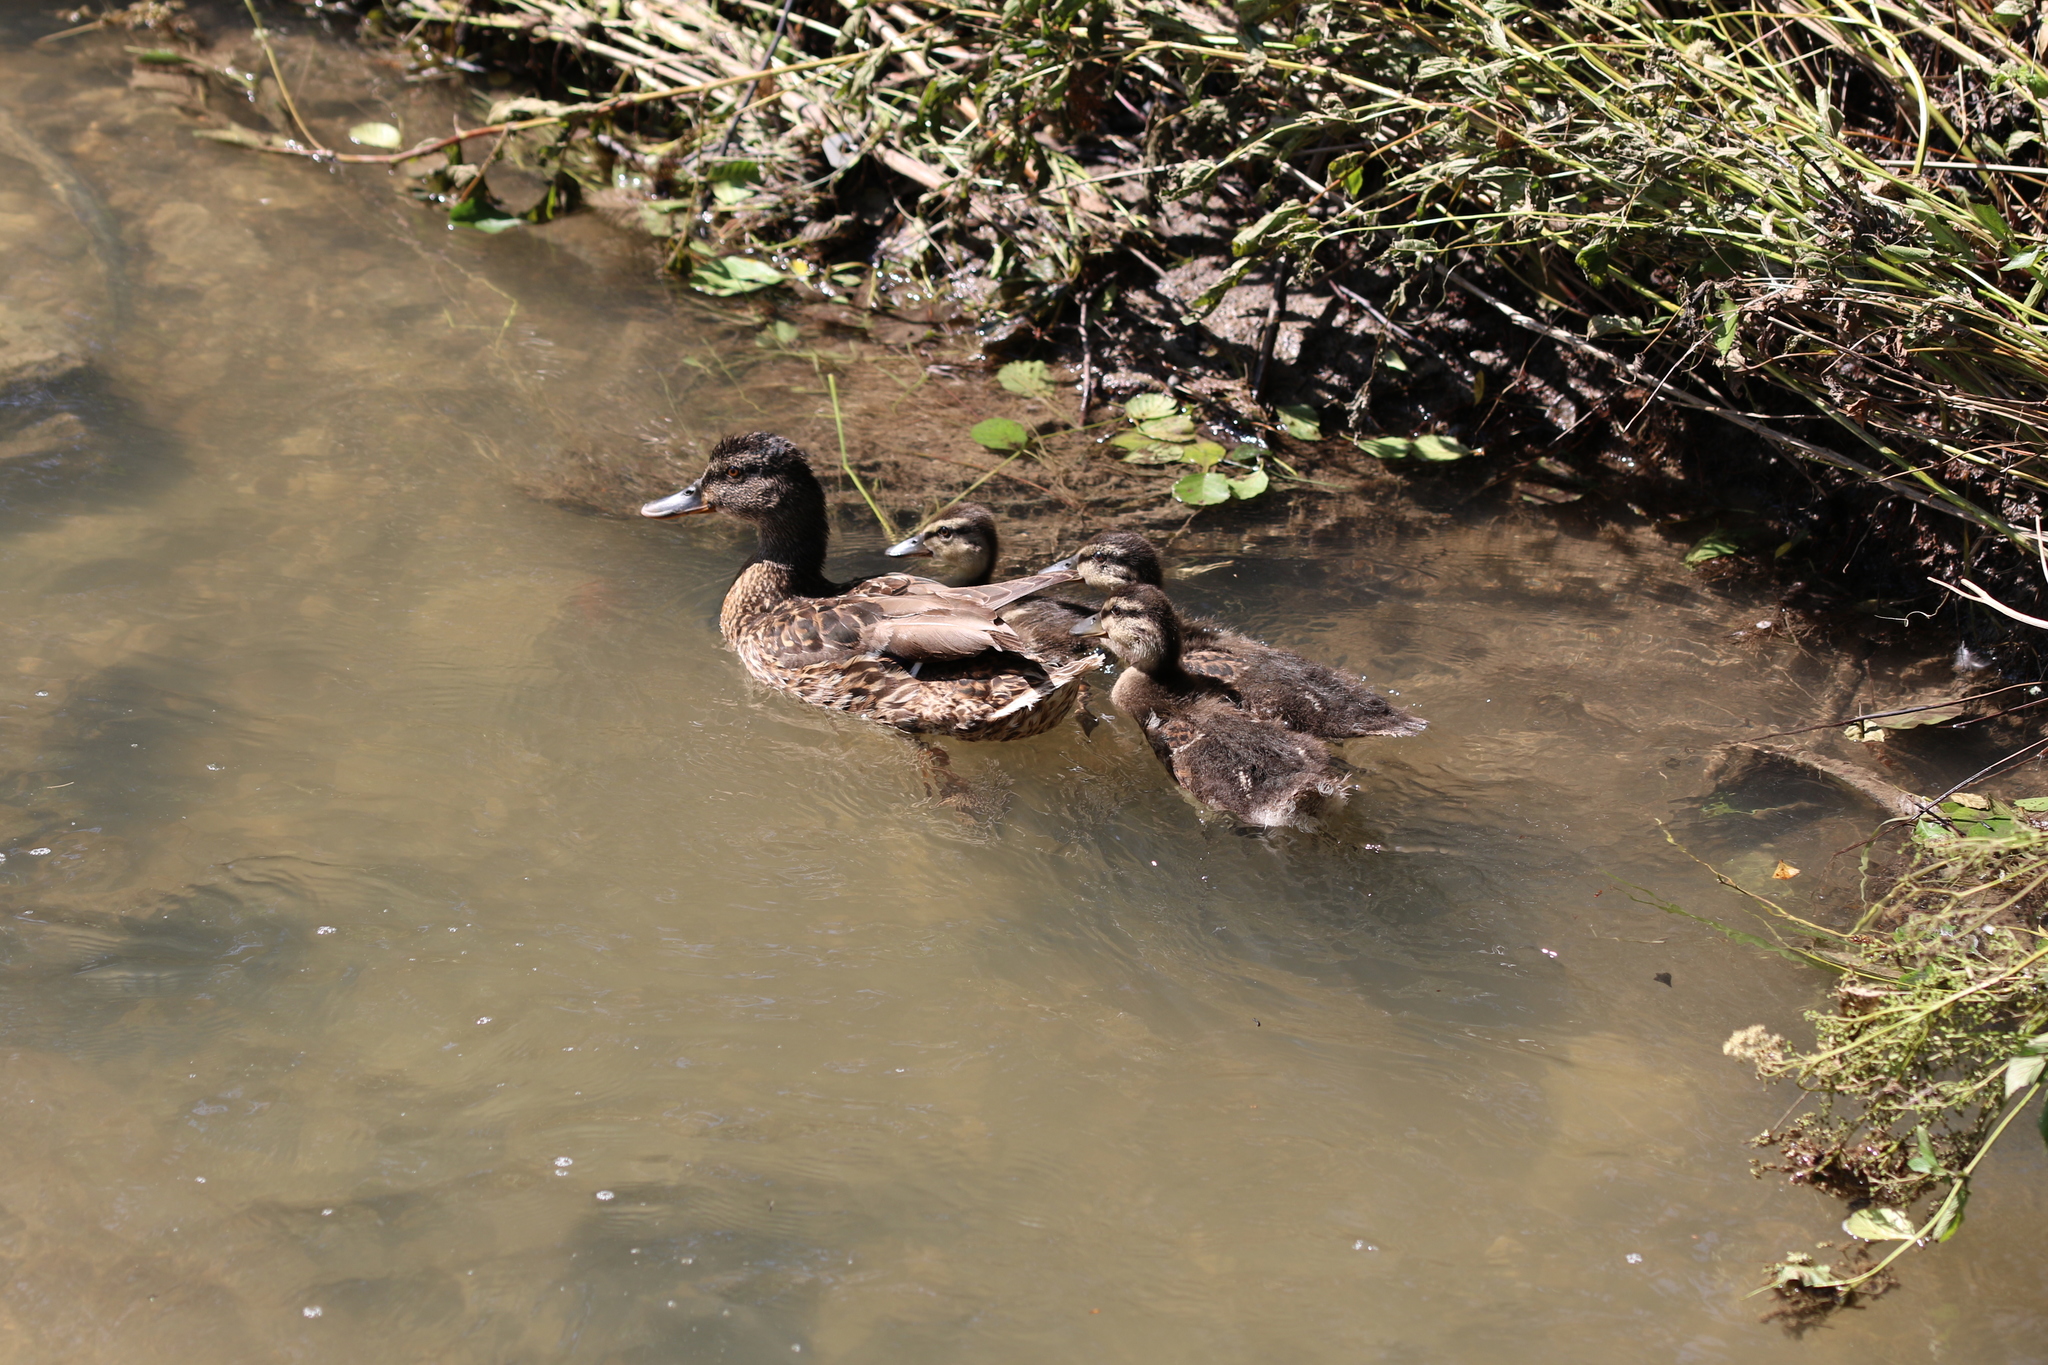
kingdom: Animalia
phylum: Chordata
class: Aves
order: Anseriformes
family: Anatidae
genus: Anas
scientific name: Anas platyrhynchos
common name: Mallard
